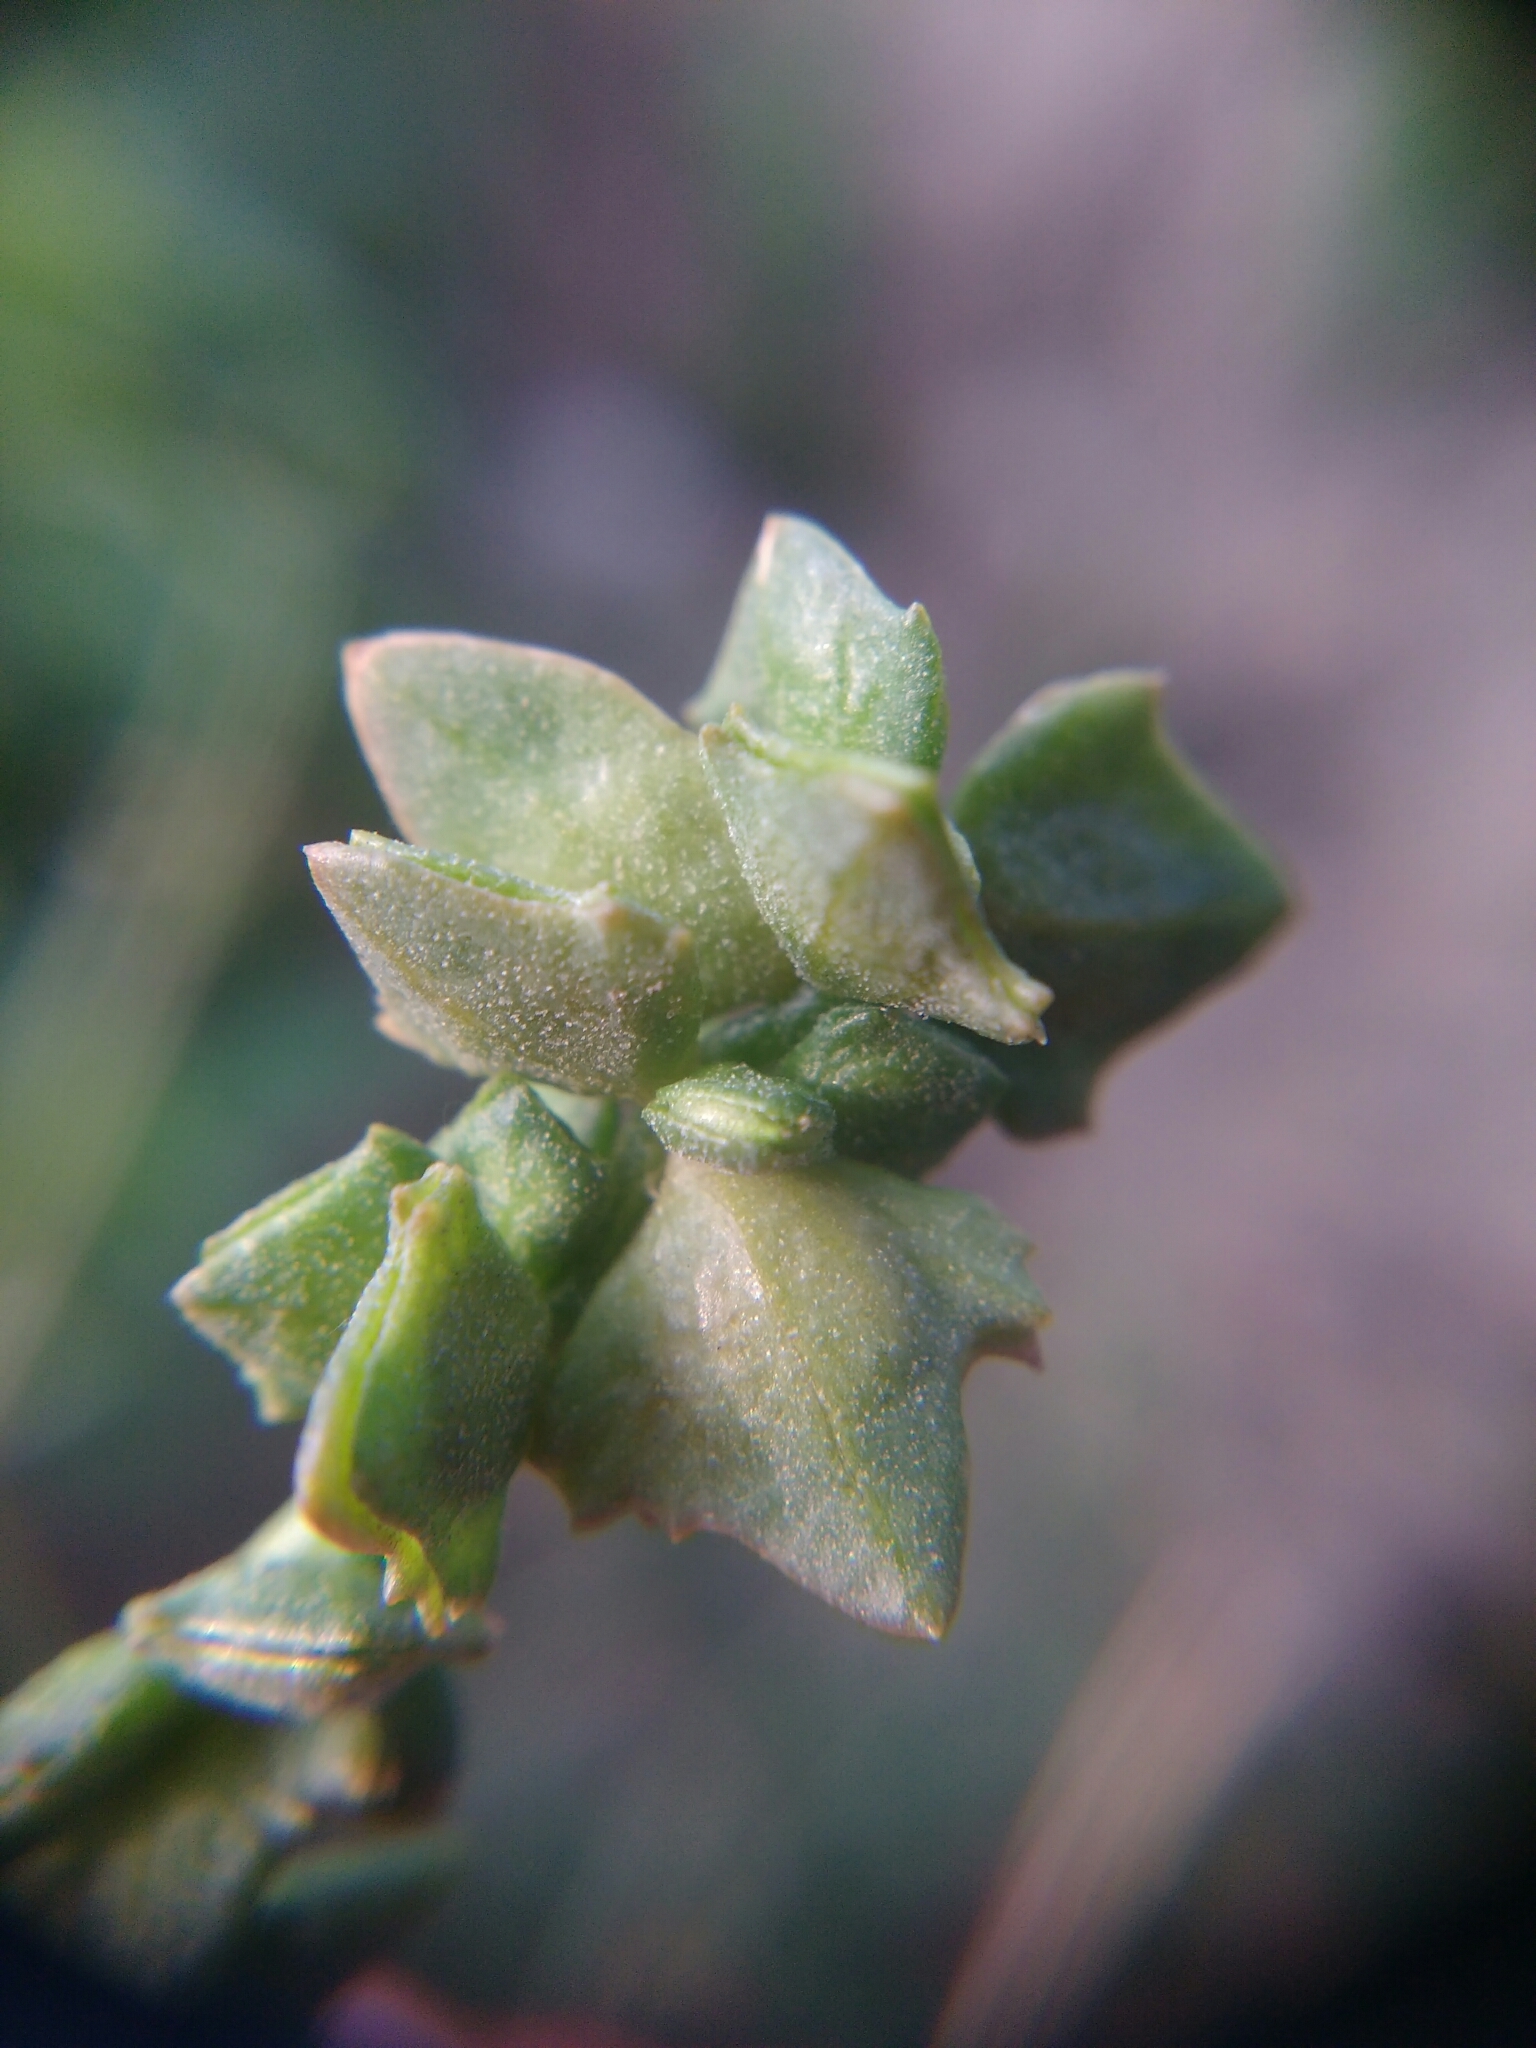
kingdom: Plantae
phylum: Tracheophyta
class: Magnoliopsida
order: Caryophyllales
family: Amaranthaceae
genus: Atriplex
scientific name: Atriplex patula
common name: Common orache
